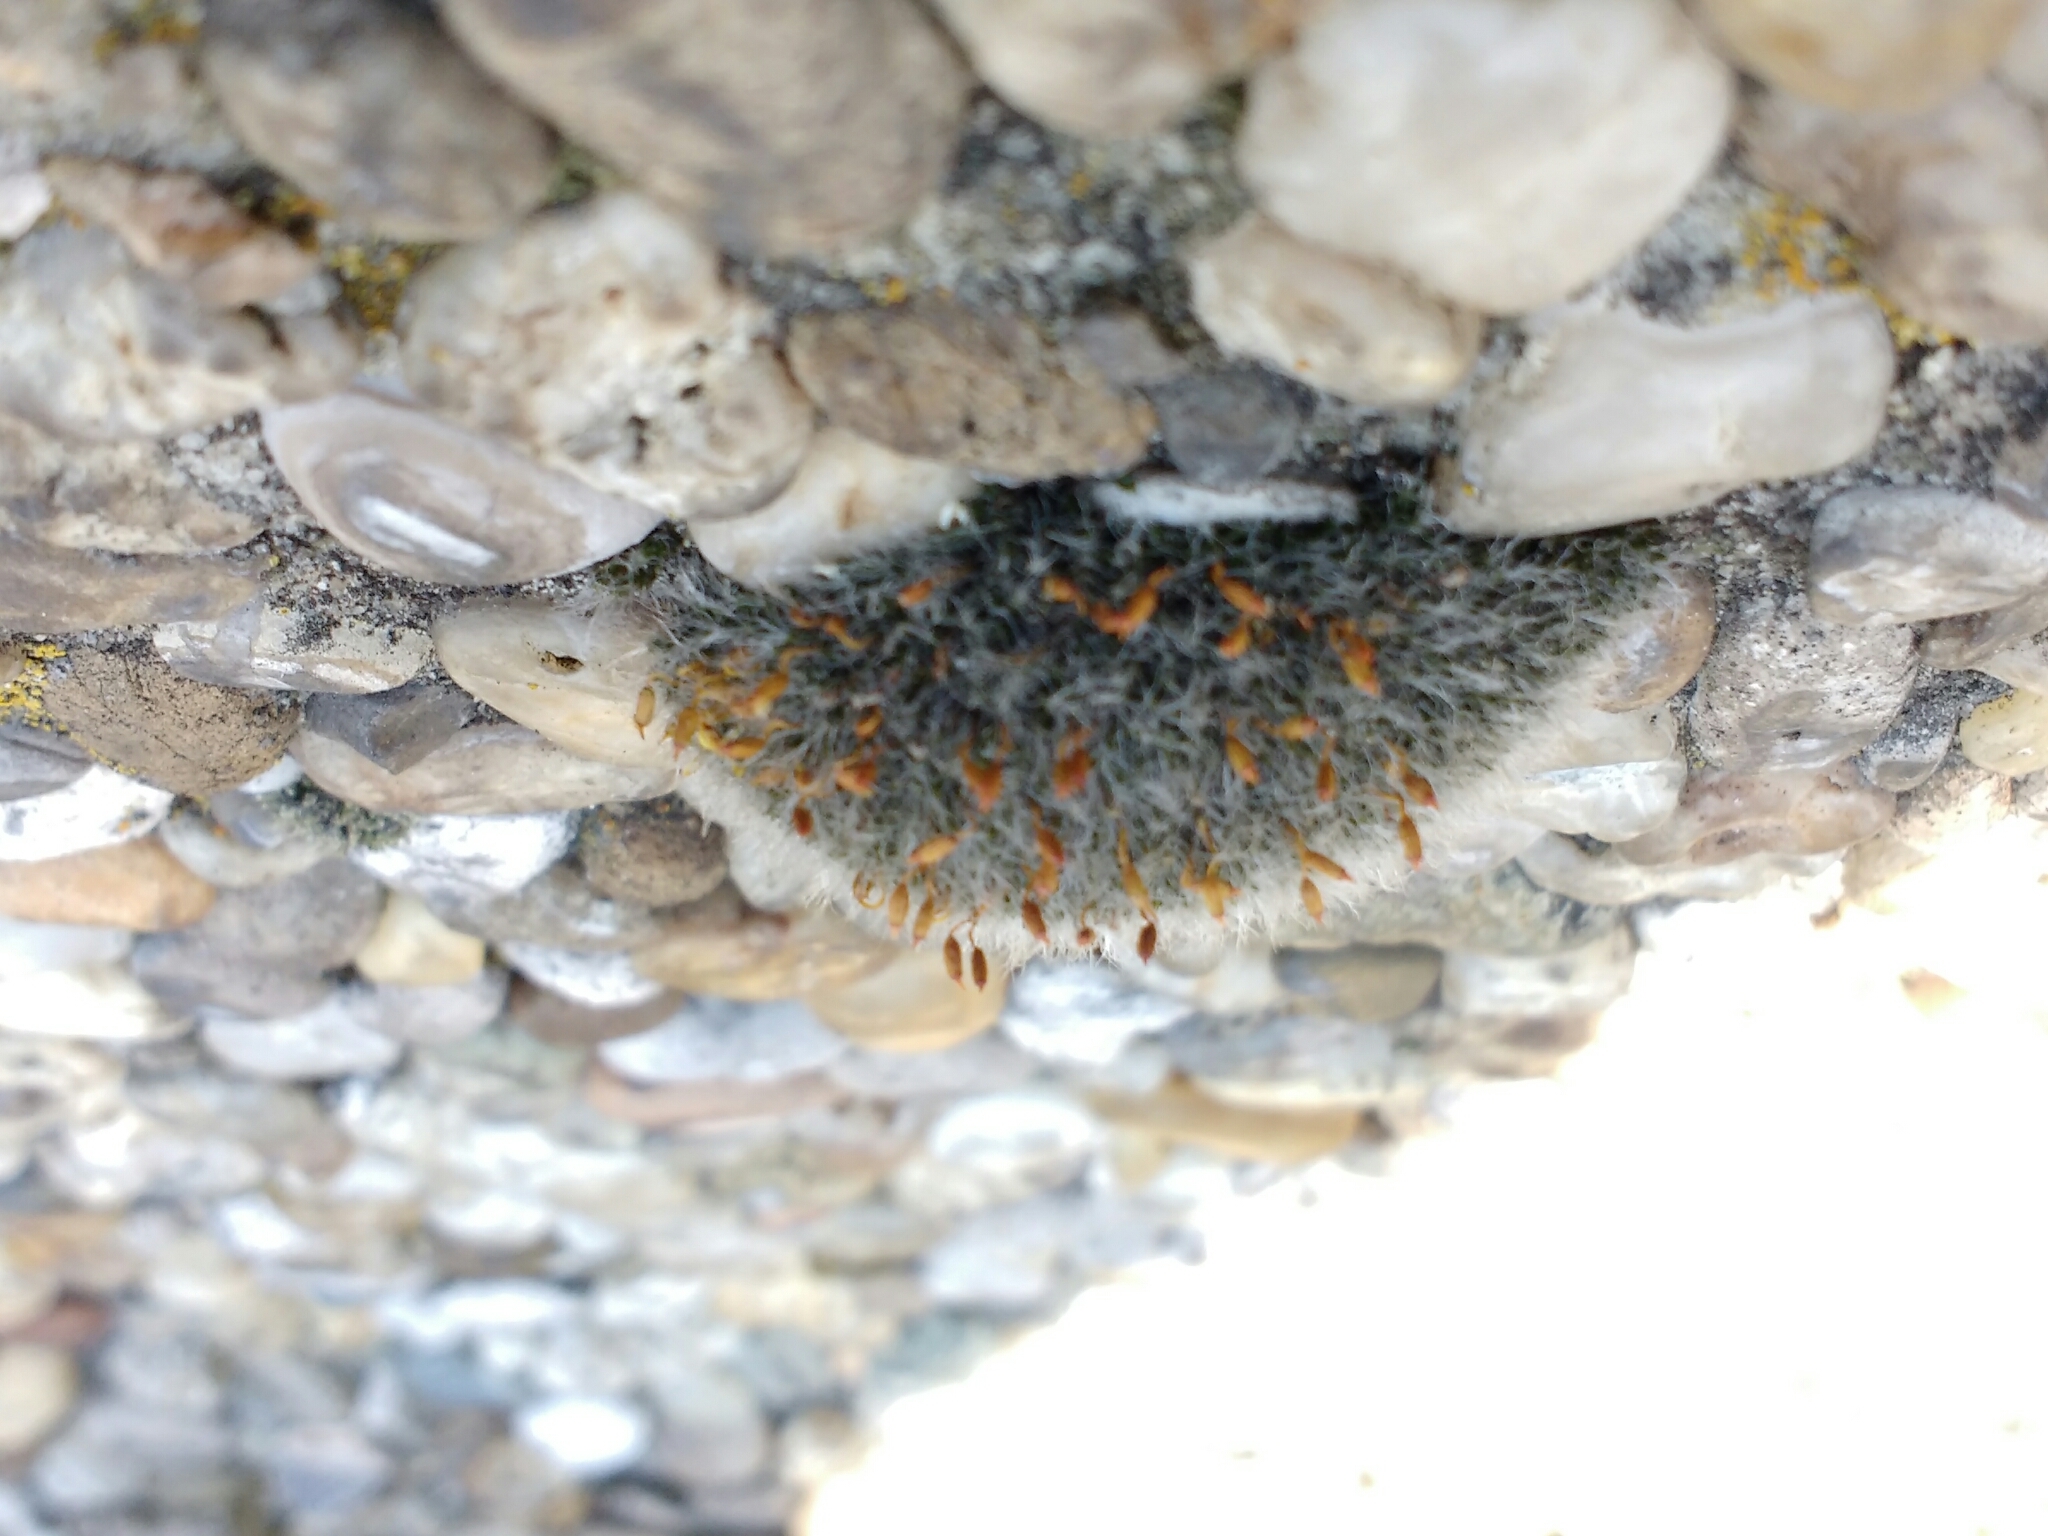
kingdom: Plantae
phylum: Bryophyta
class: Bryopsida
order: Grimmiales
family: Grimmiaceae
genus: Grimmia
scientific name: Grimmia pulvinata
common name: Grey-cushioned grimmia
